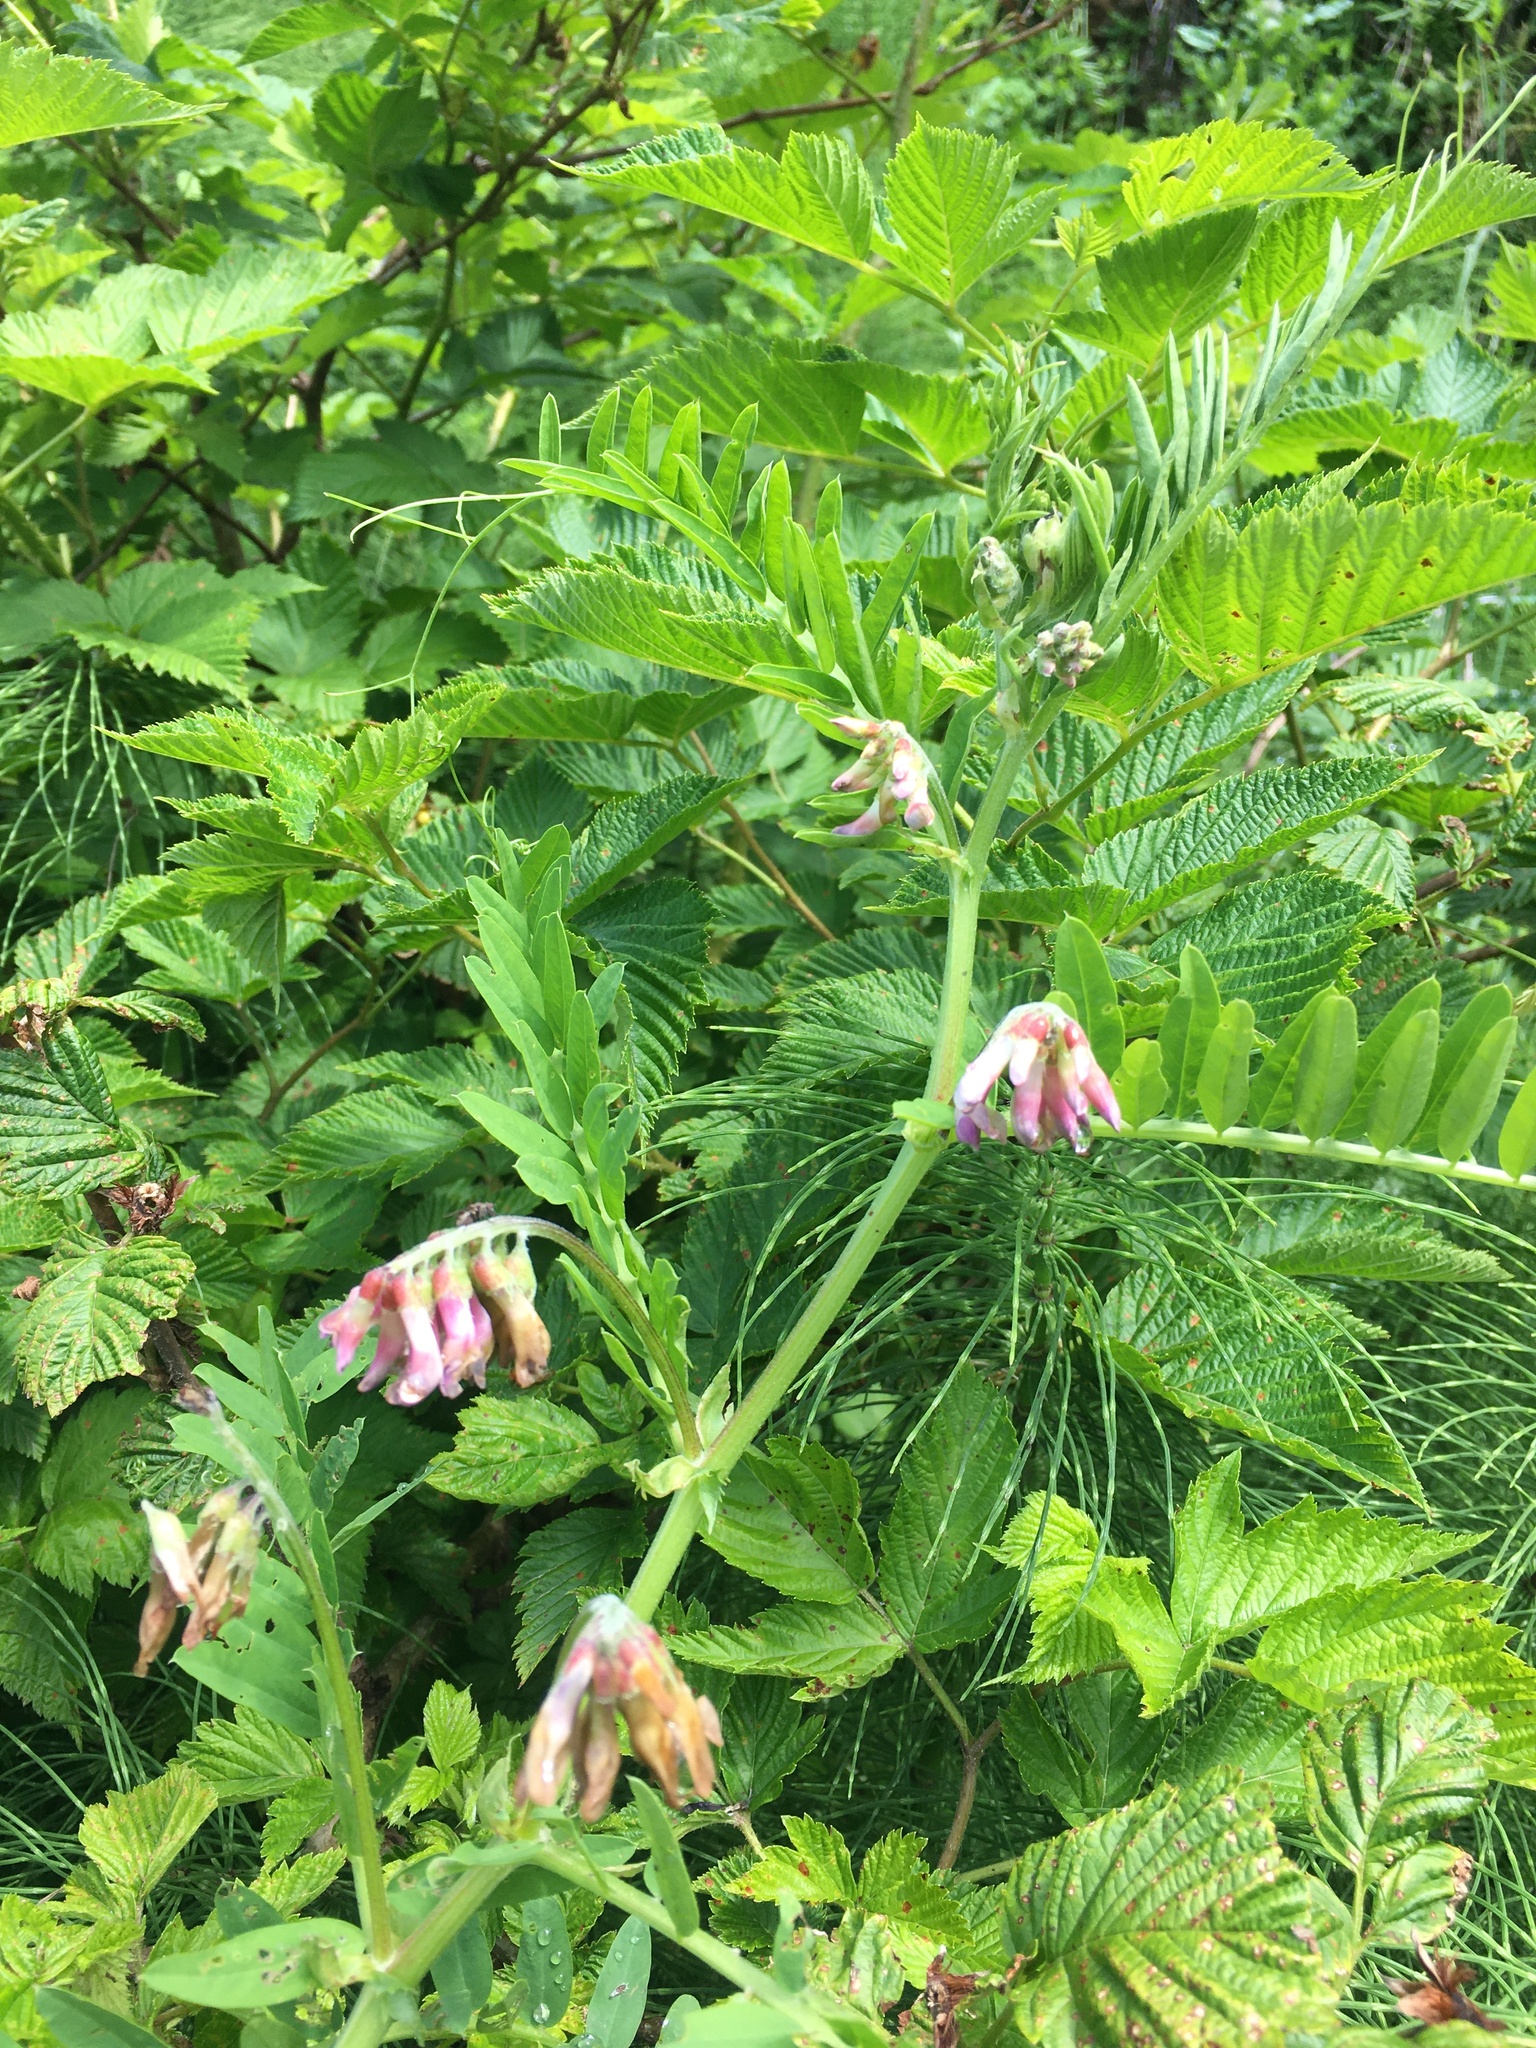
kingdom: Plantae
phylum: Tracheophyta
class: Magnoliopsida
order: Fabales
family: Fabaceae
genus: Vicia
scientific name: Vicia
